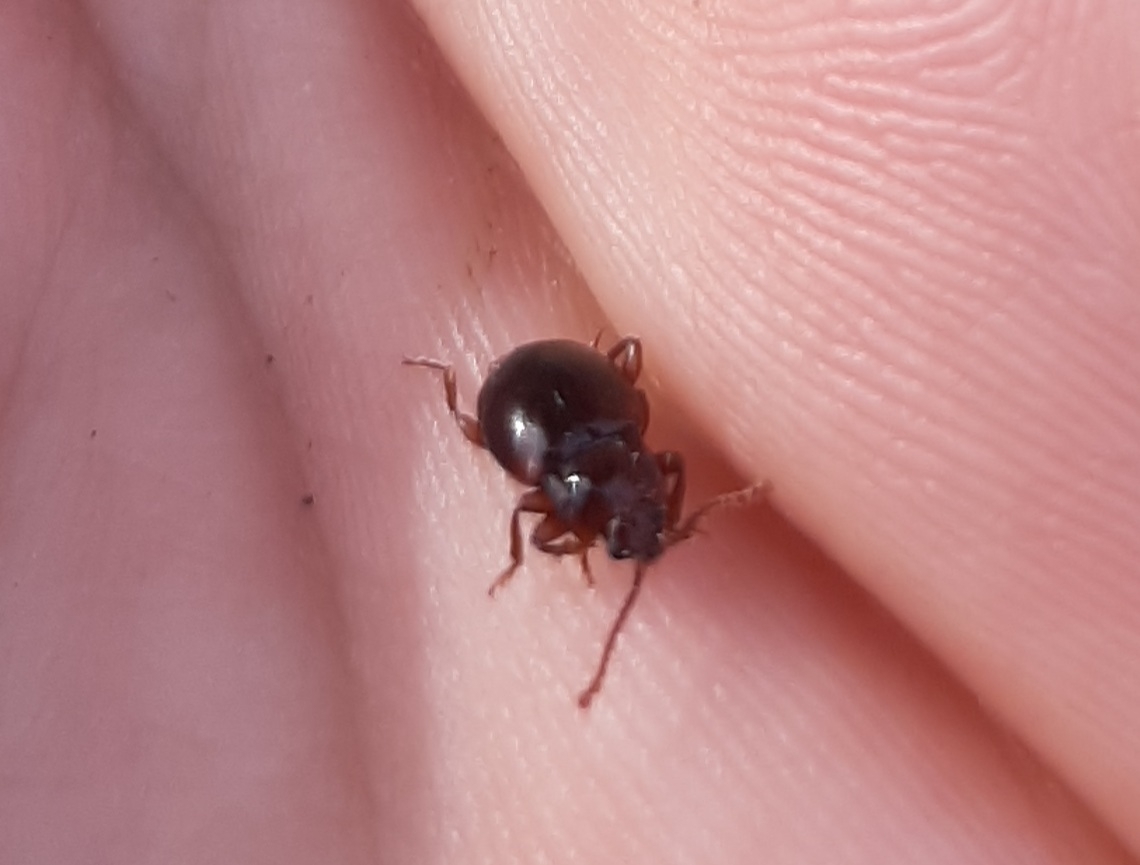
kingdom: Animalia
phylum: Arthropoda
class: Insecta
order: Coleoptera
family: Endomychidae
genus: Lycoperdina
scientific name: Lycoperdina ferruginea
